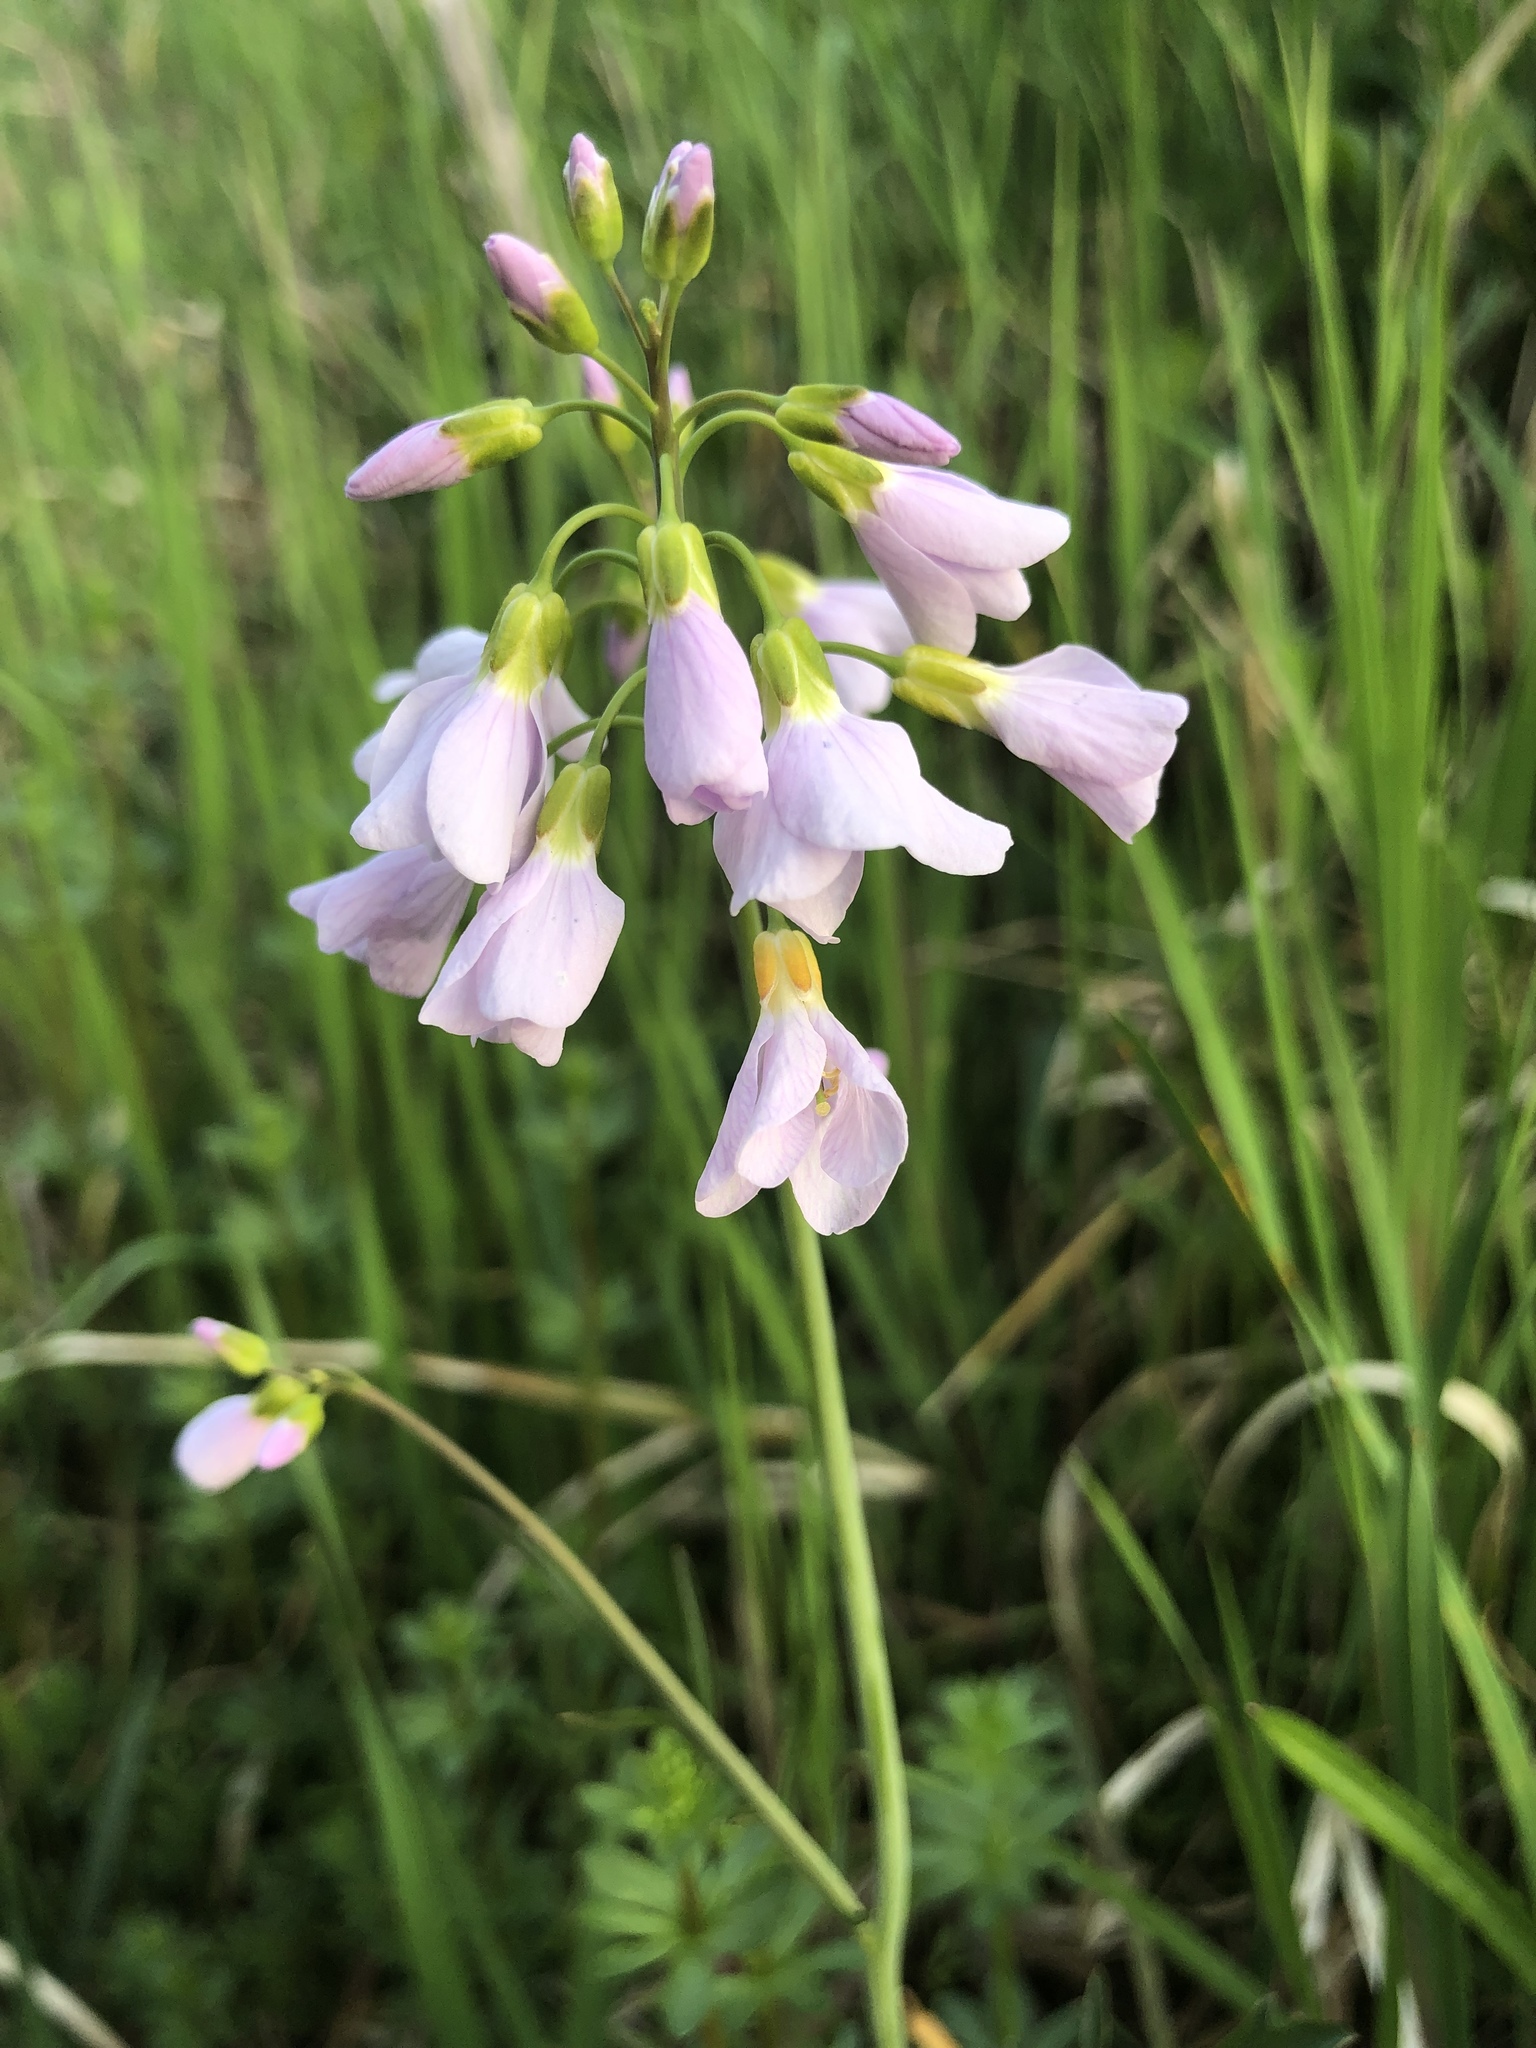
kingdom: Plantae
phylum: Tracheophyta
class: Magnoliopsida
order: Brassicales
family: Brassicaceae
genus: Cardamine
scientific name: Cardamine pratensis
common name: Cuckoo flower
